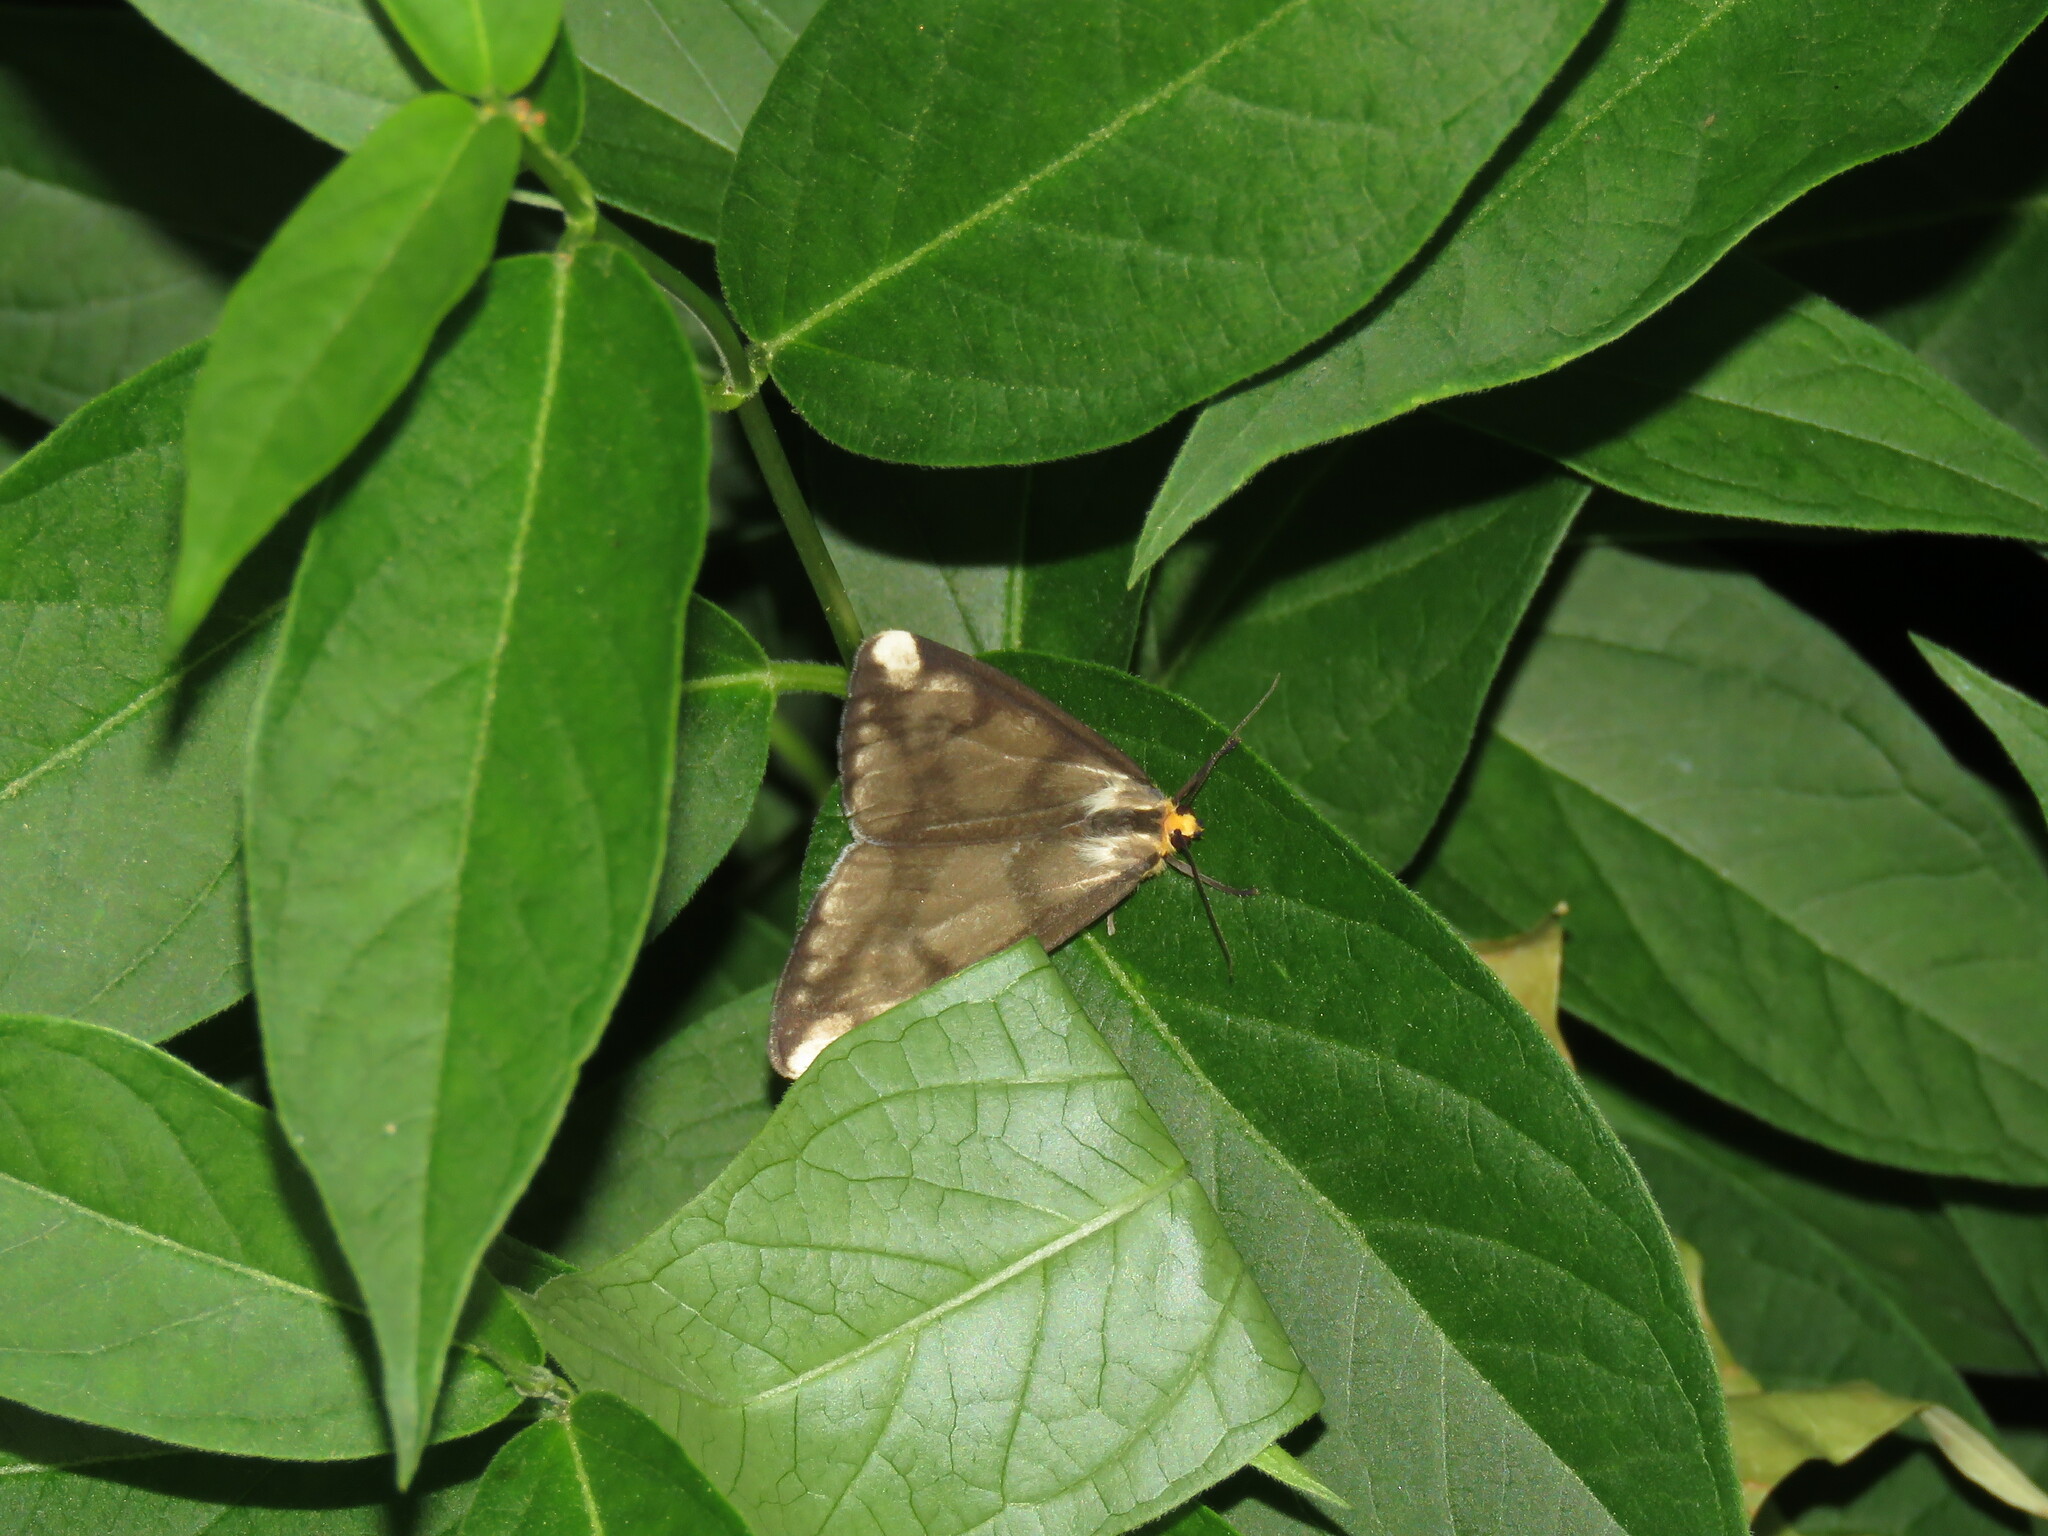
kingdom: Animalia
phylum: Arthropoda
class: Insecta
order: Lepidoptera
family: Erebidae
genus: Haploa
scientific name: Haploa lecontei
